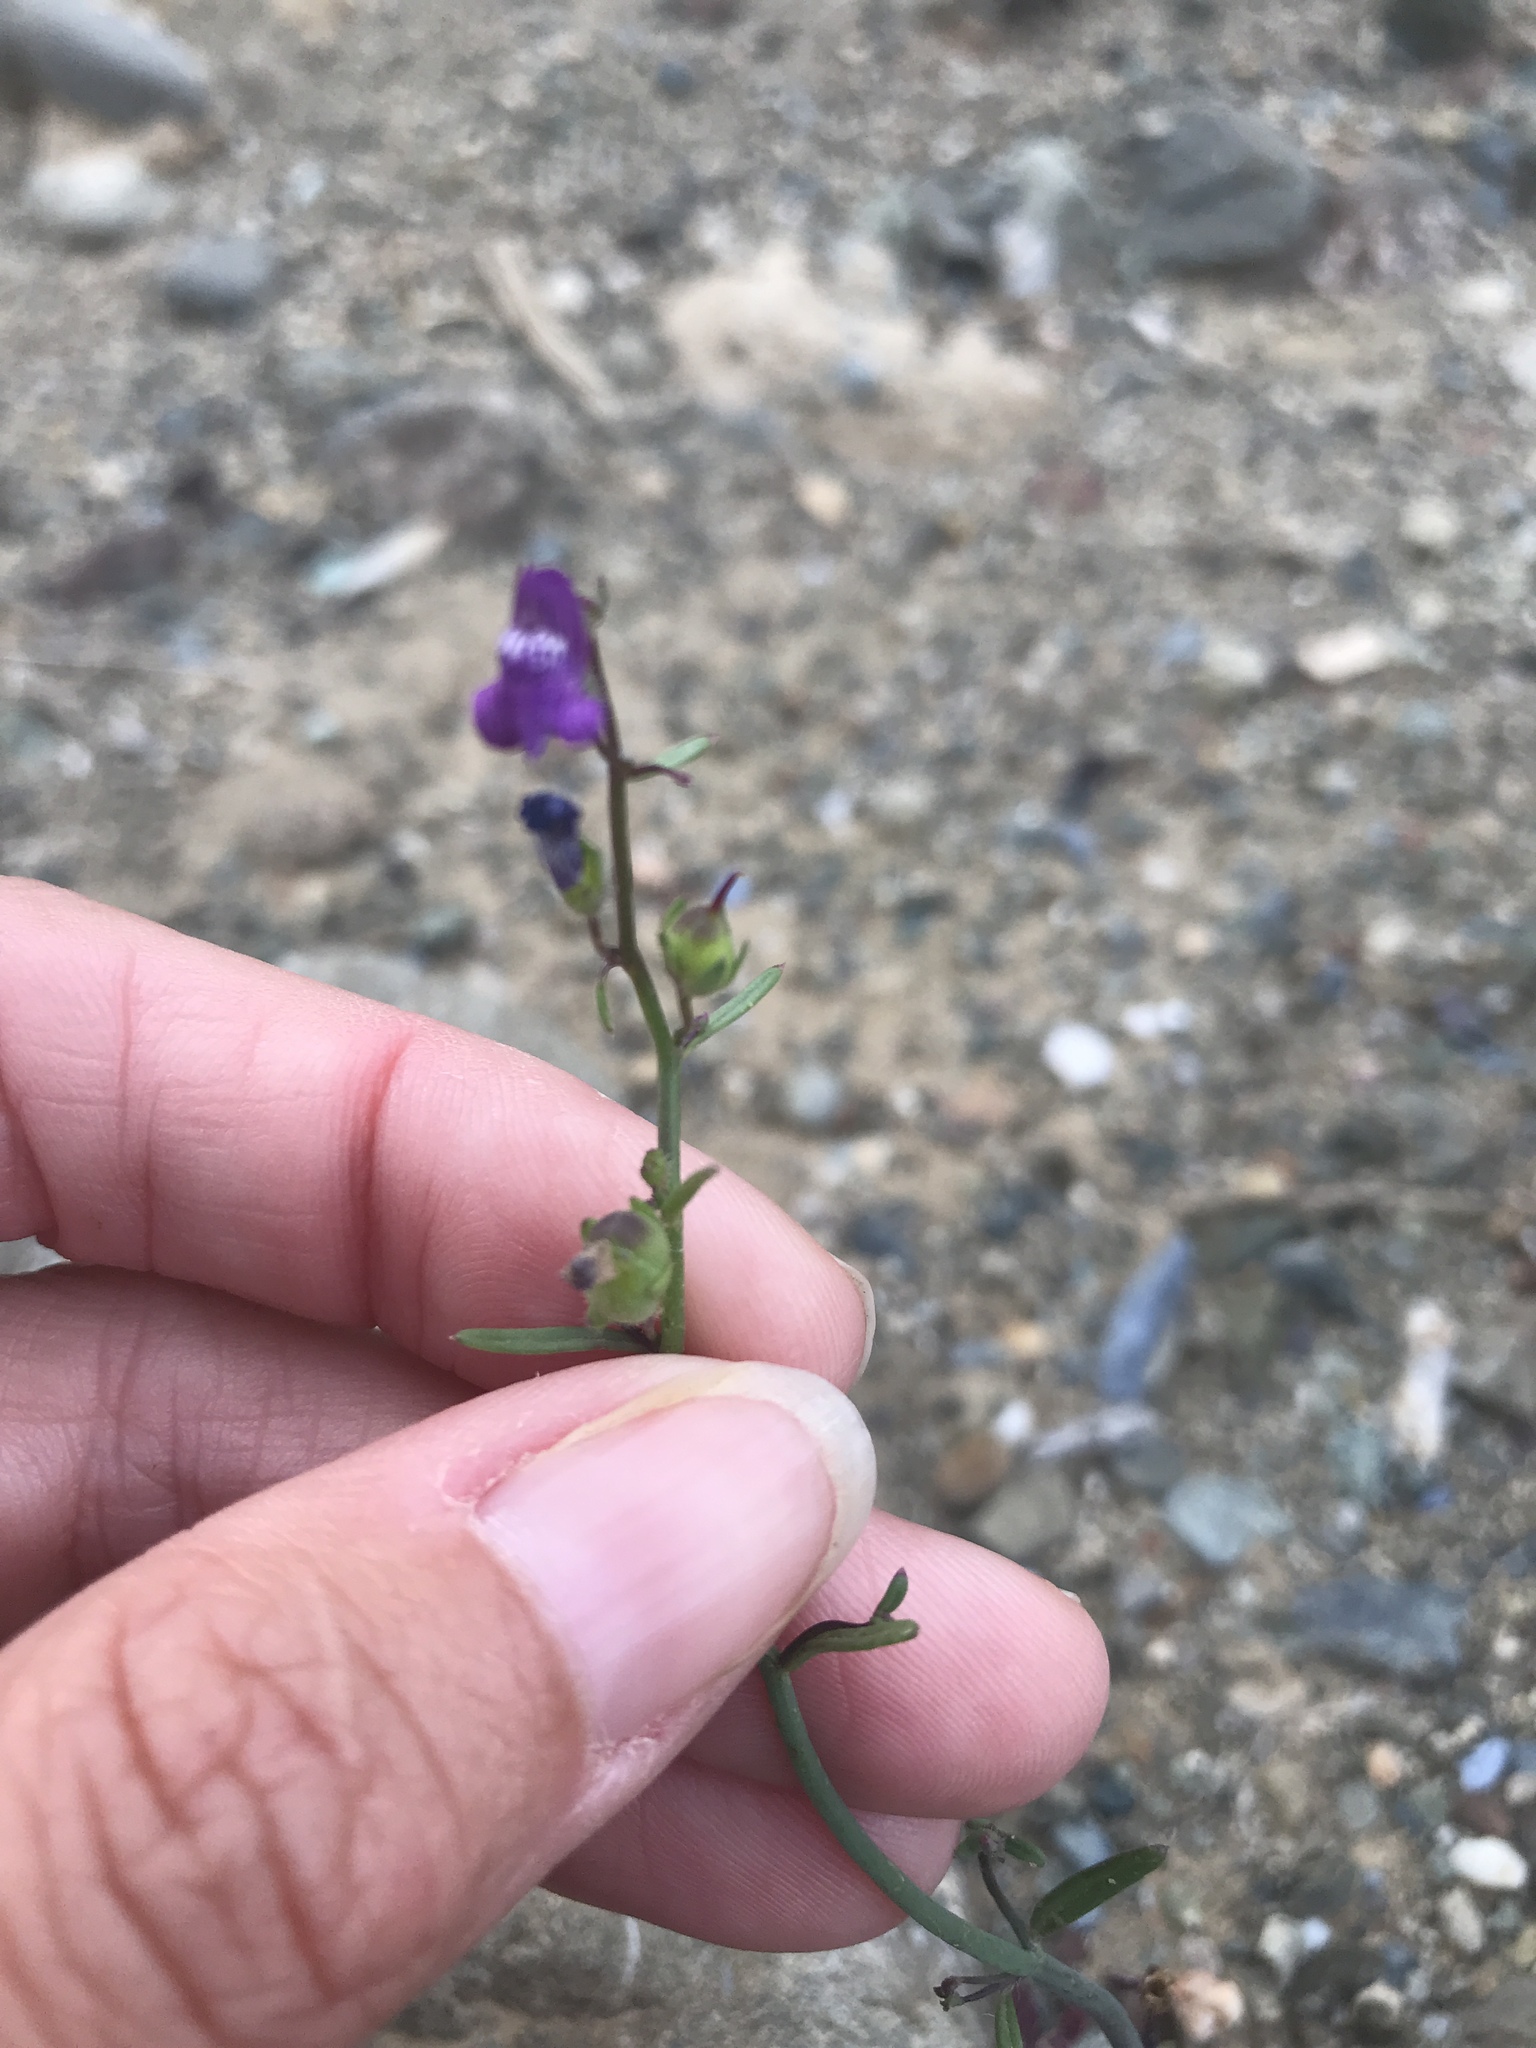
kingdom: Plantae
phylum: Tracheophyta
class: Magnoliopsida
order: Lamiales
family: Plantaginaceae
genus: Sairocarpus
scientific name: Sairocarpus watsonii
